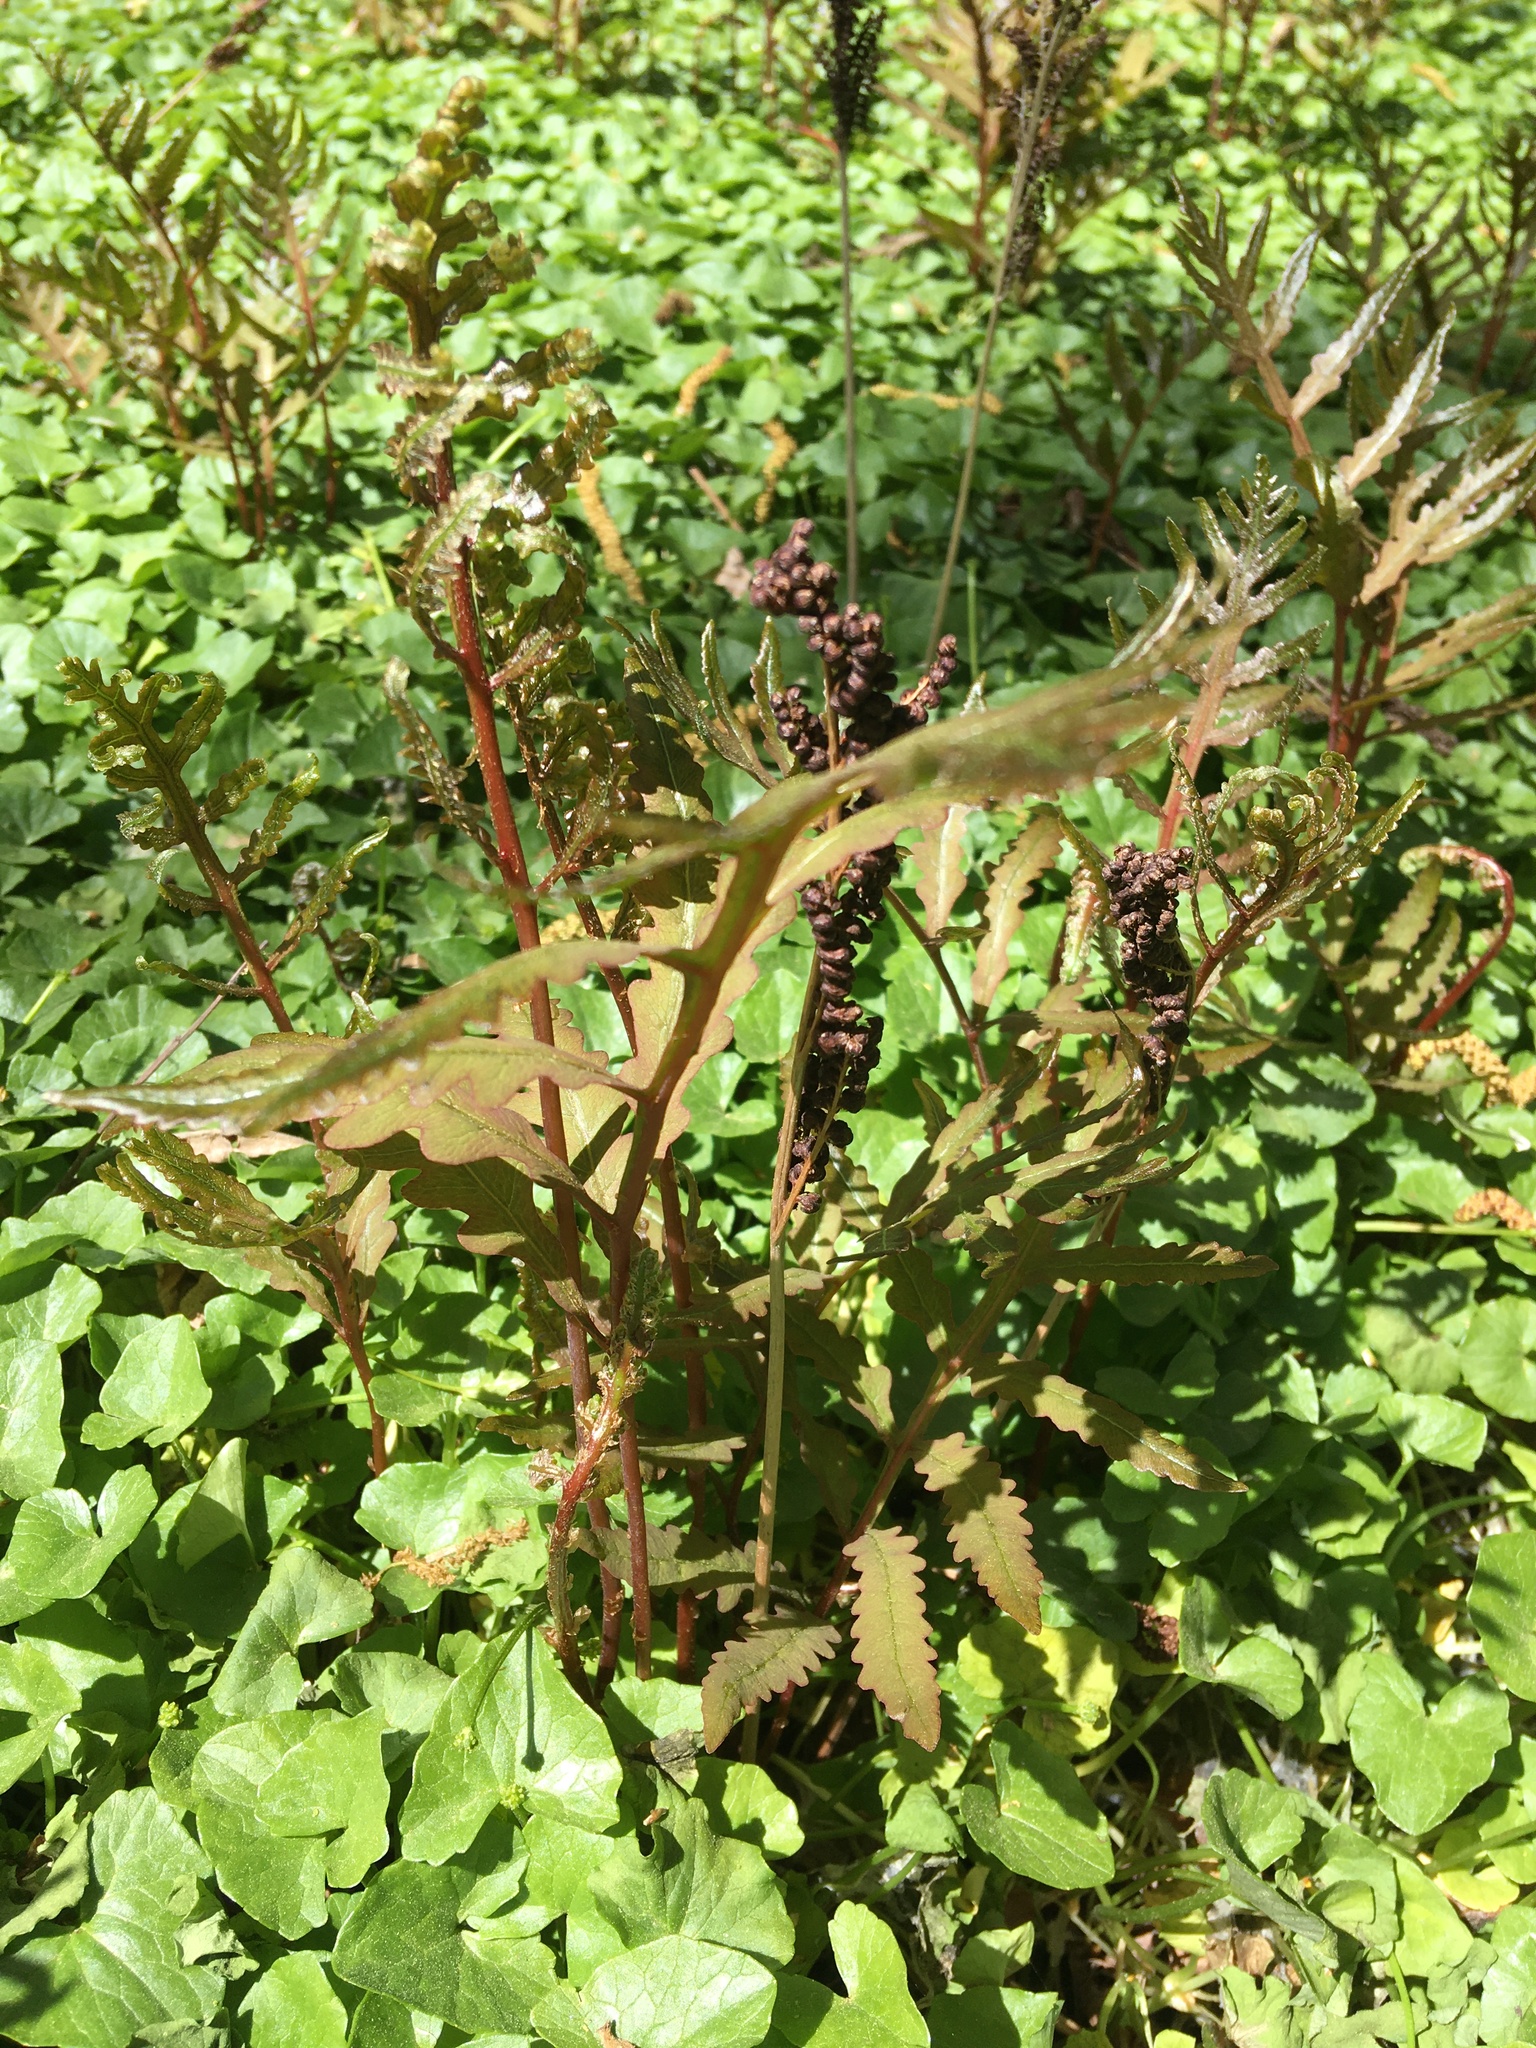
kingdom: Plantae
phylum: Tracheophyta
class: Polypodiopsida
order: Polypodiales
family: Onocleaceae
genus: Onoclea
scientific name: Onoclea sensibilis
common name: Sensitive fern
